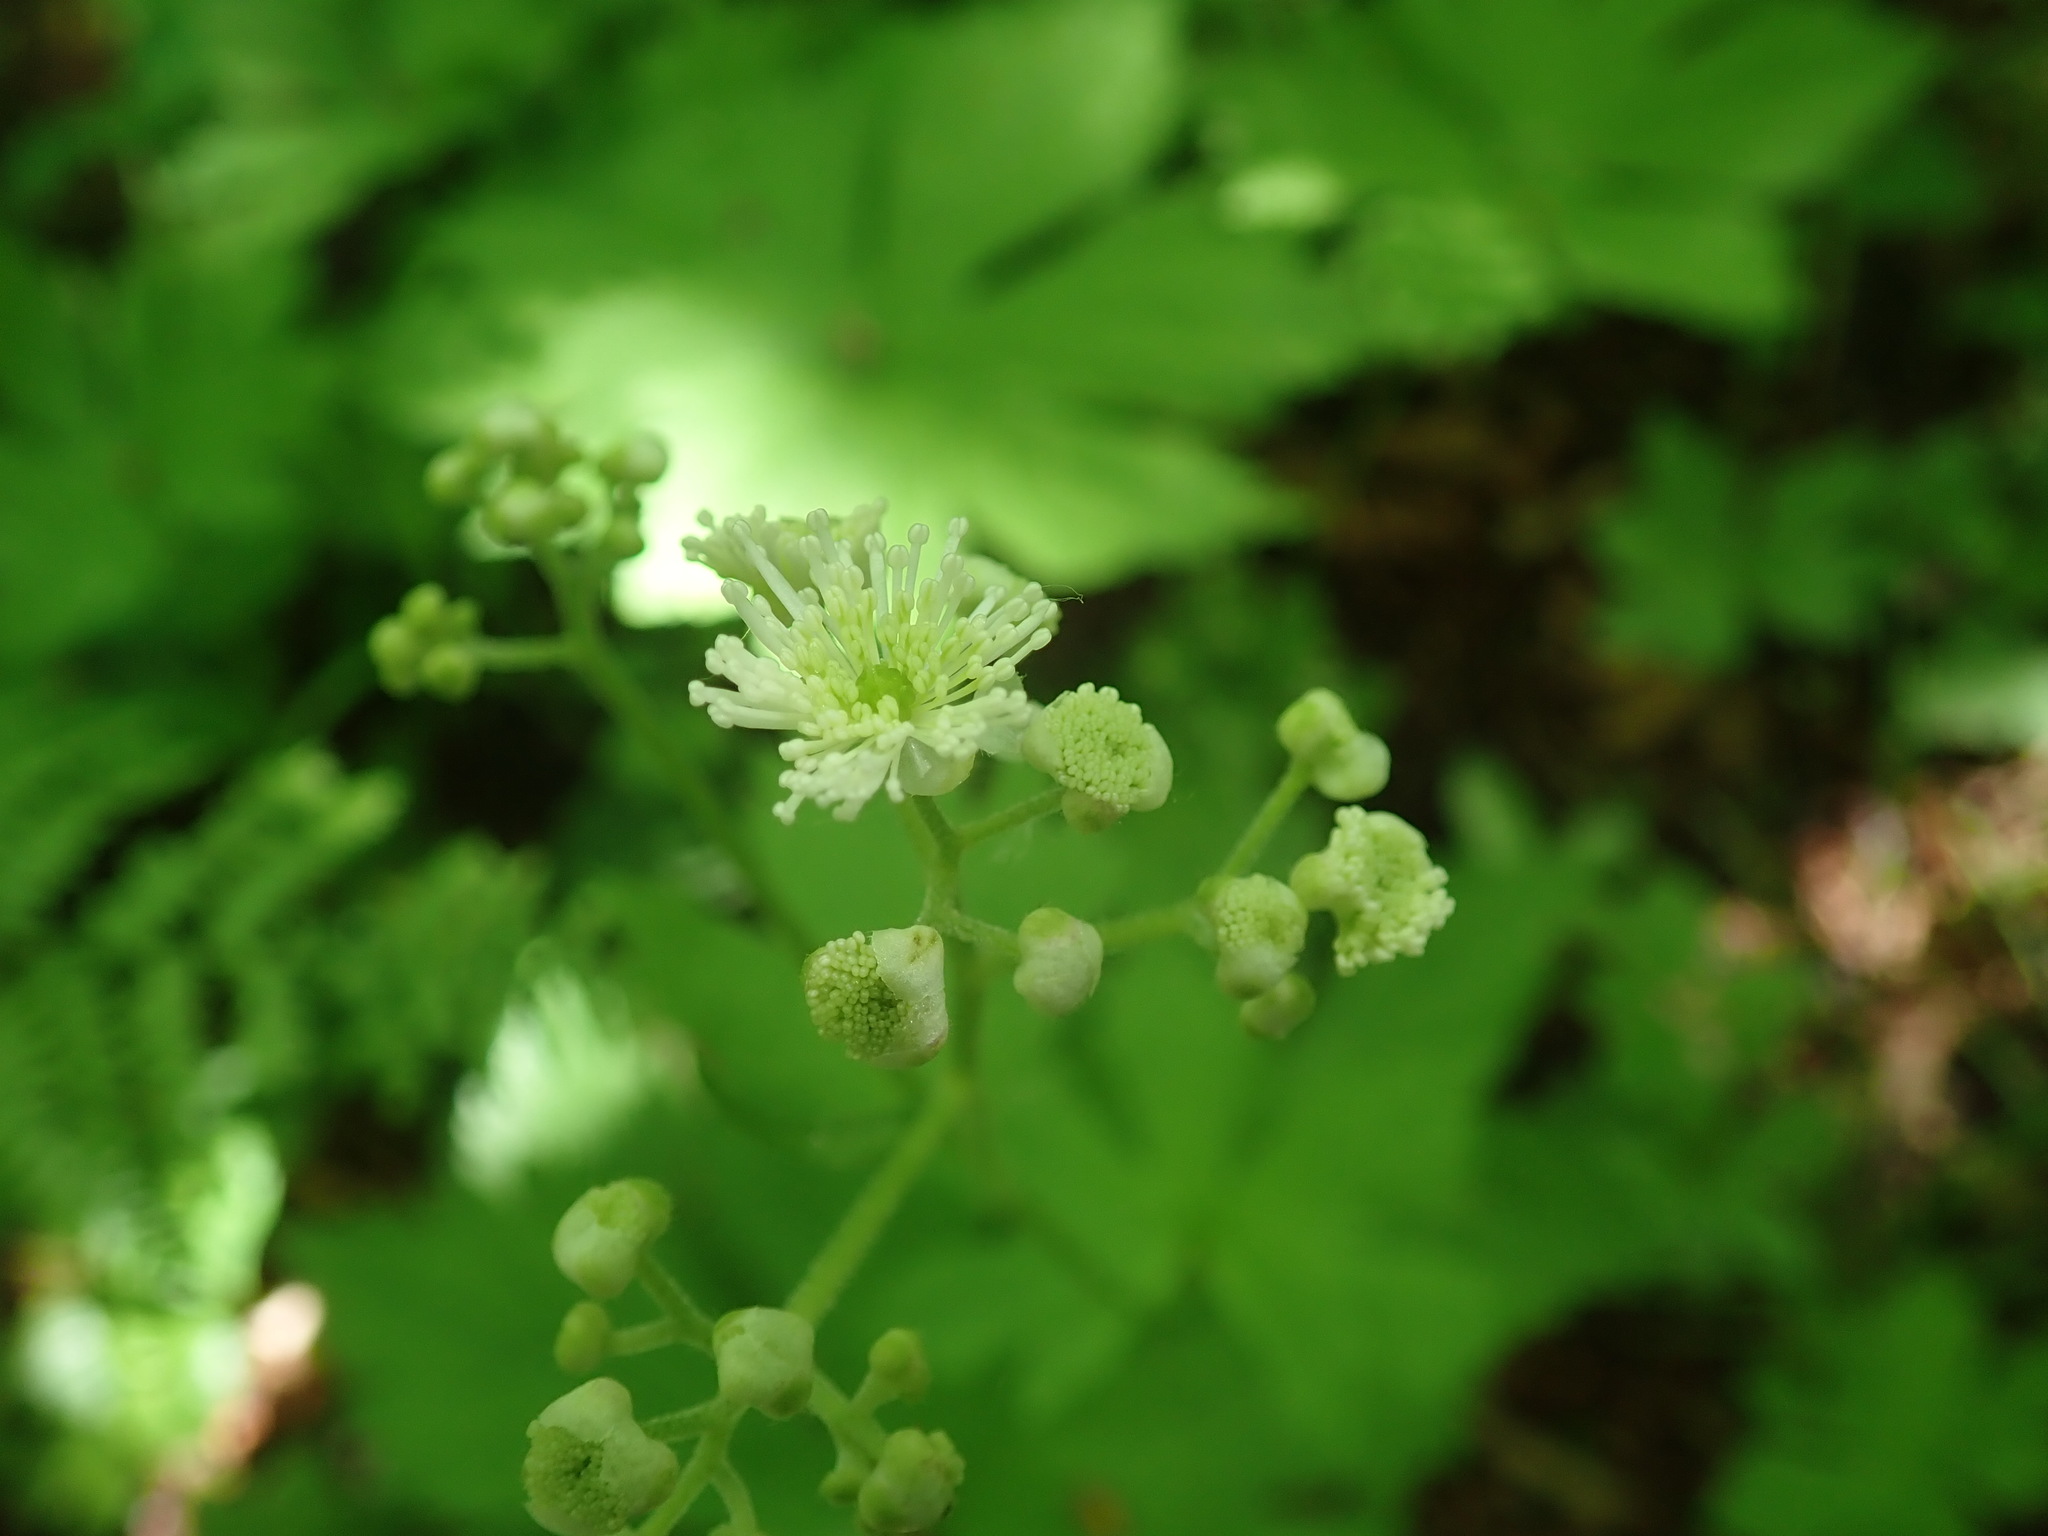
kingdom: Plantae
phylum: Tracheophyta
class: Magnoliopsida
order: Ranunculales
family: Ranunculaceae
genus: Trautvetteria
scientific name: Trautvetteria carolinensis
